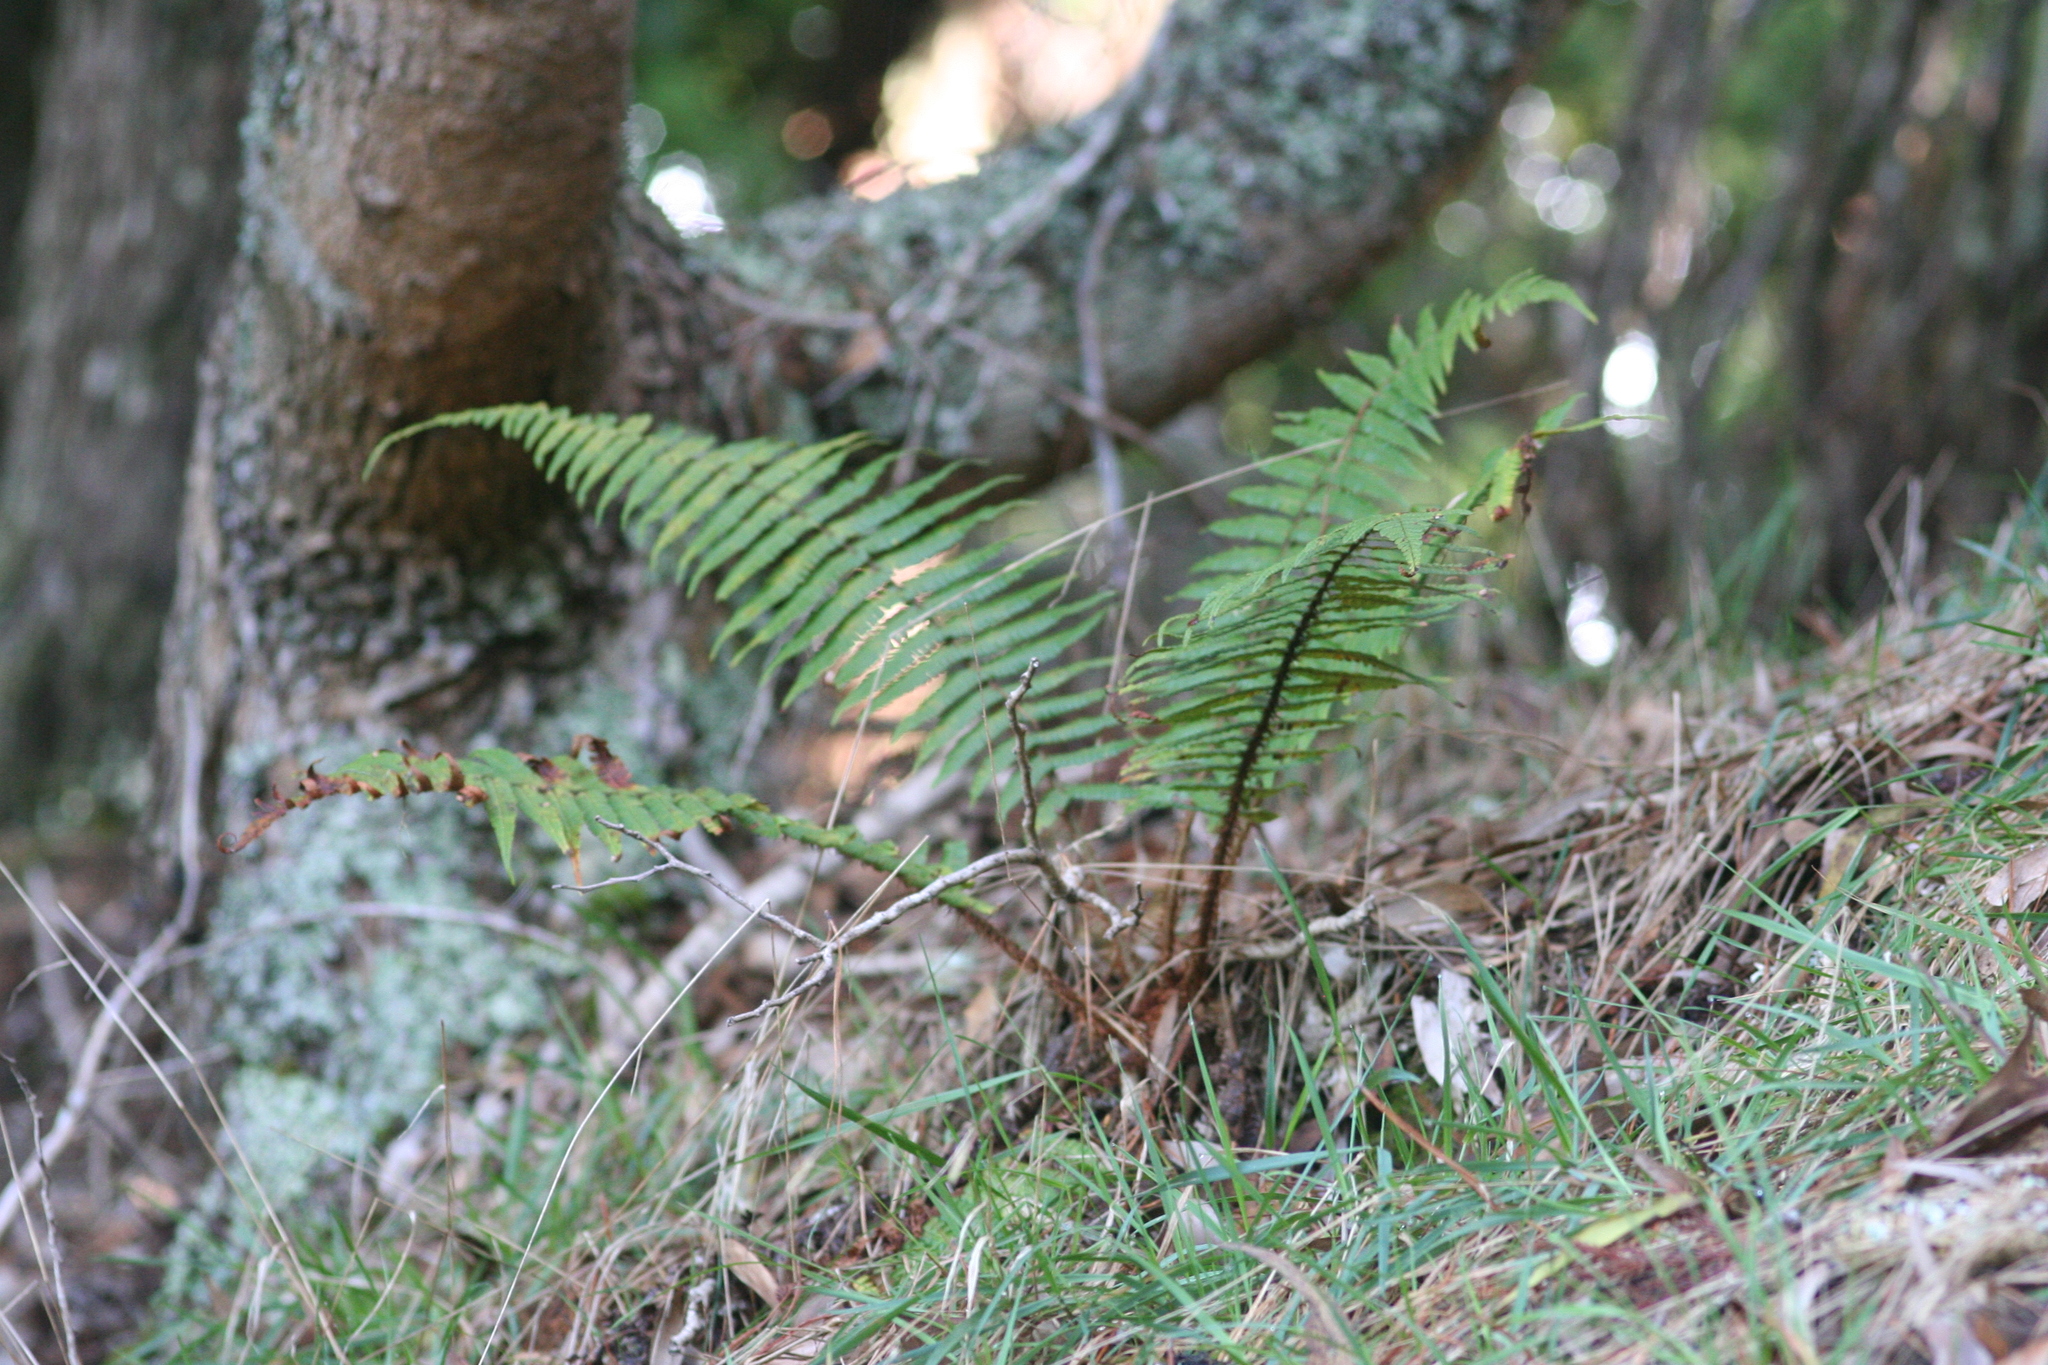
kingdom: Plantae
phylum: Tracheophyta
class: Polypodiopsida
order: Polypodiales
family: Dryopteridaceae
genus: Dryopteris
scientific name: Dryopteris wallichiana
